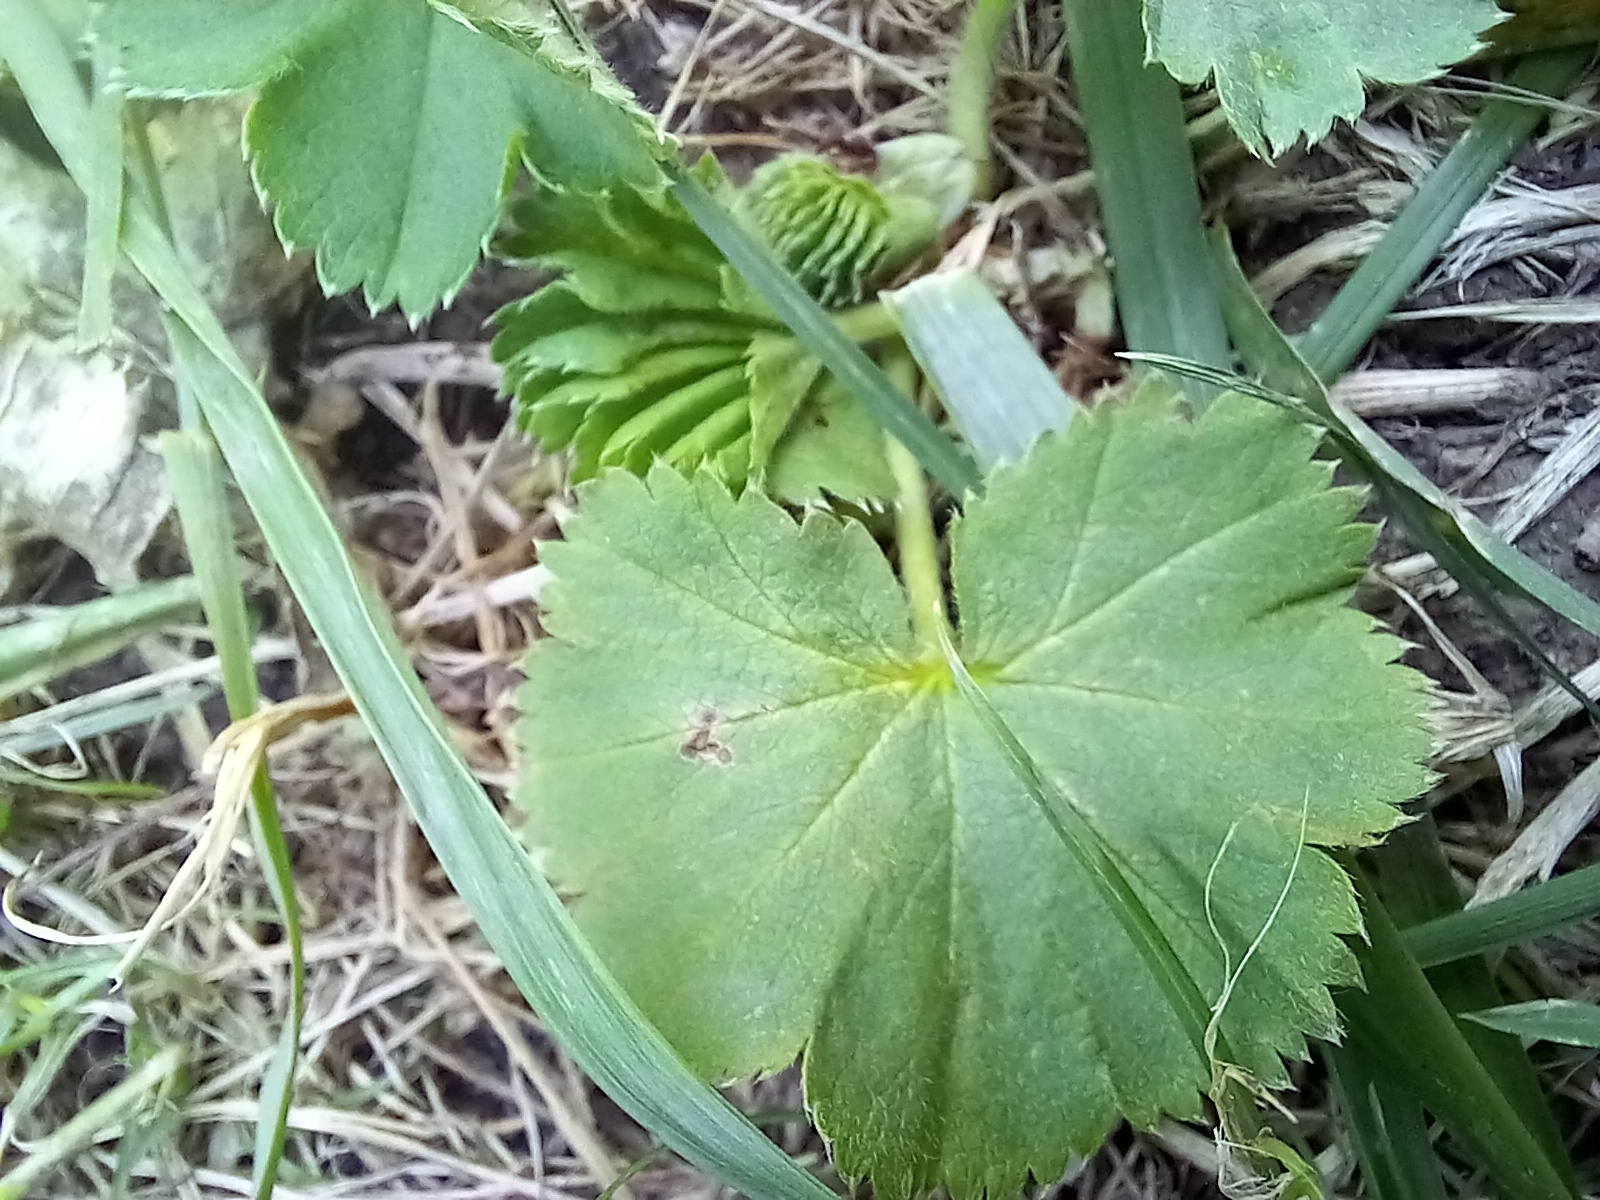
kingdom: Plantae
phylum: Tracheophyta
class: Magnoliopsida
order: Rosales
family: Rosaceae
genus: Alchemilla
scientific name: Alchemilla
